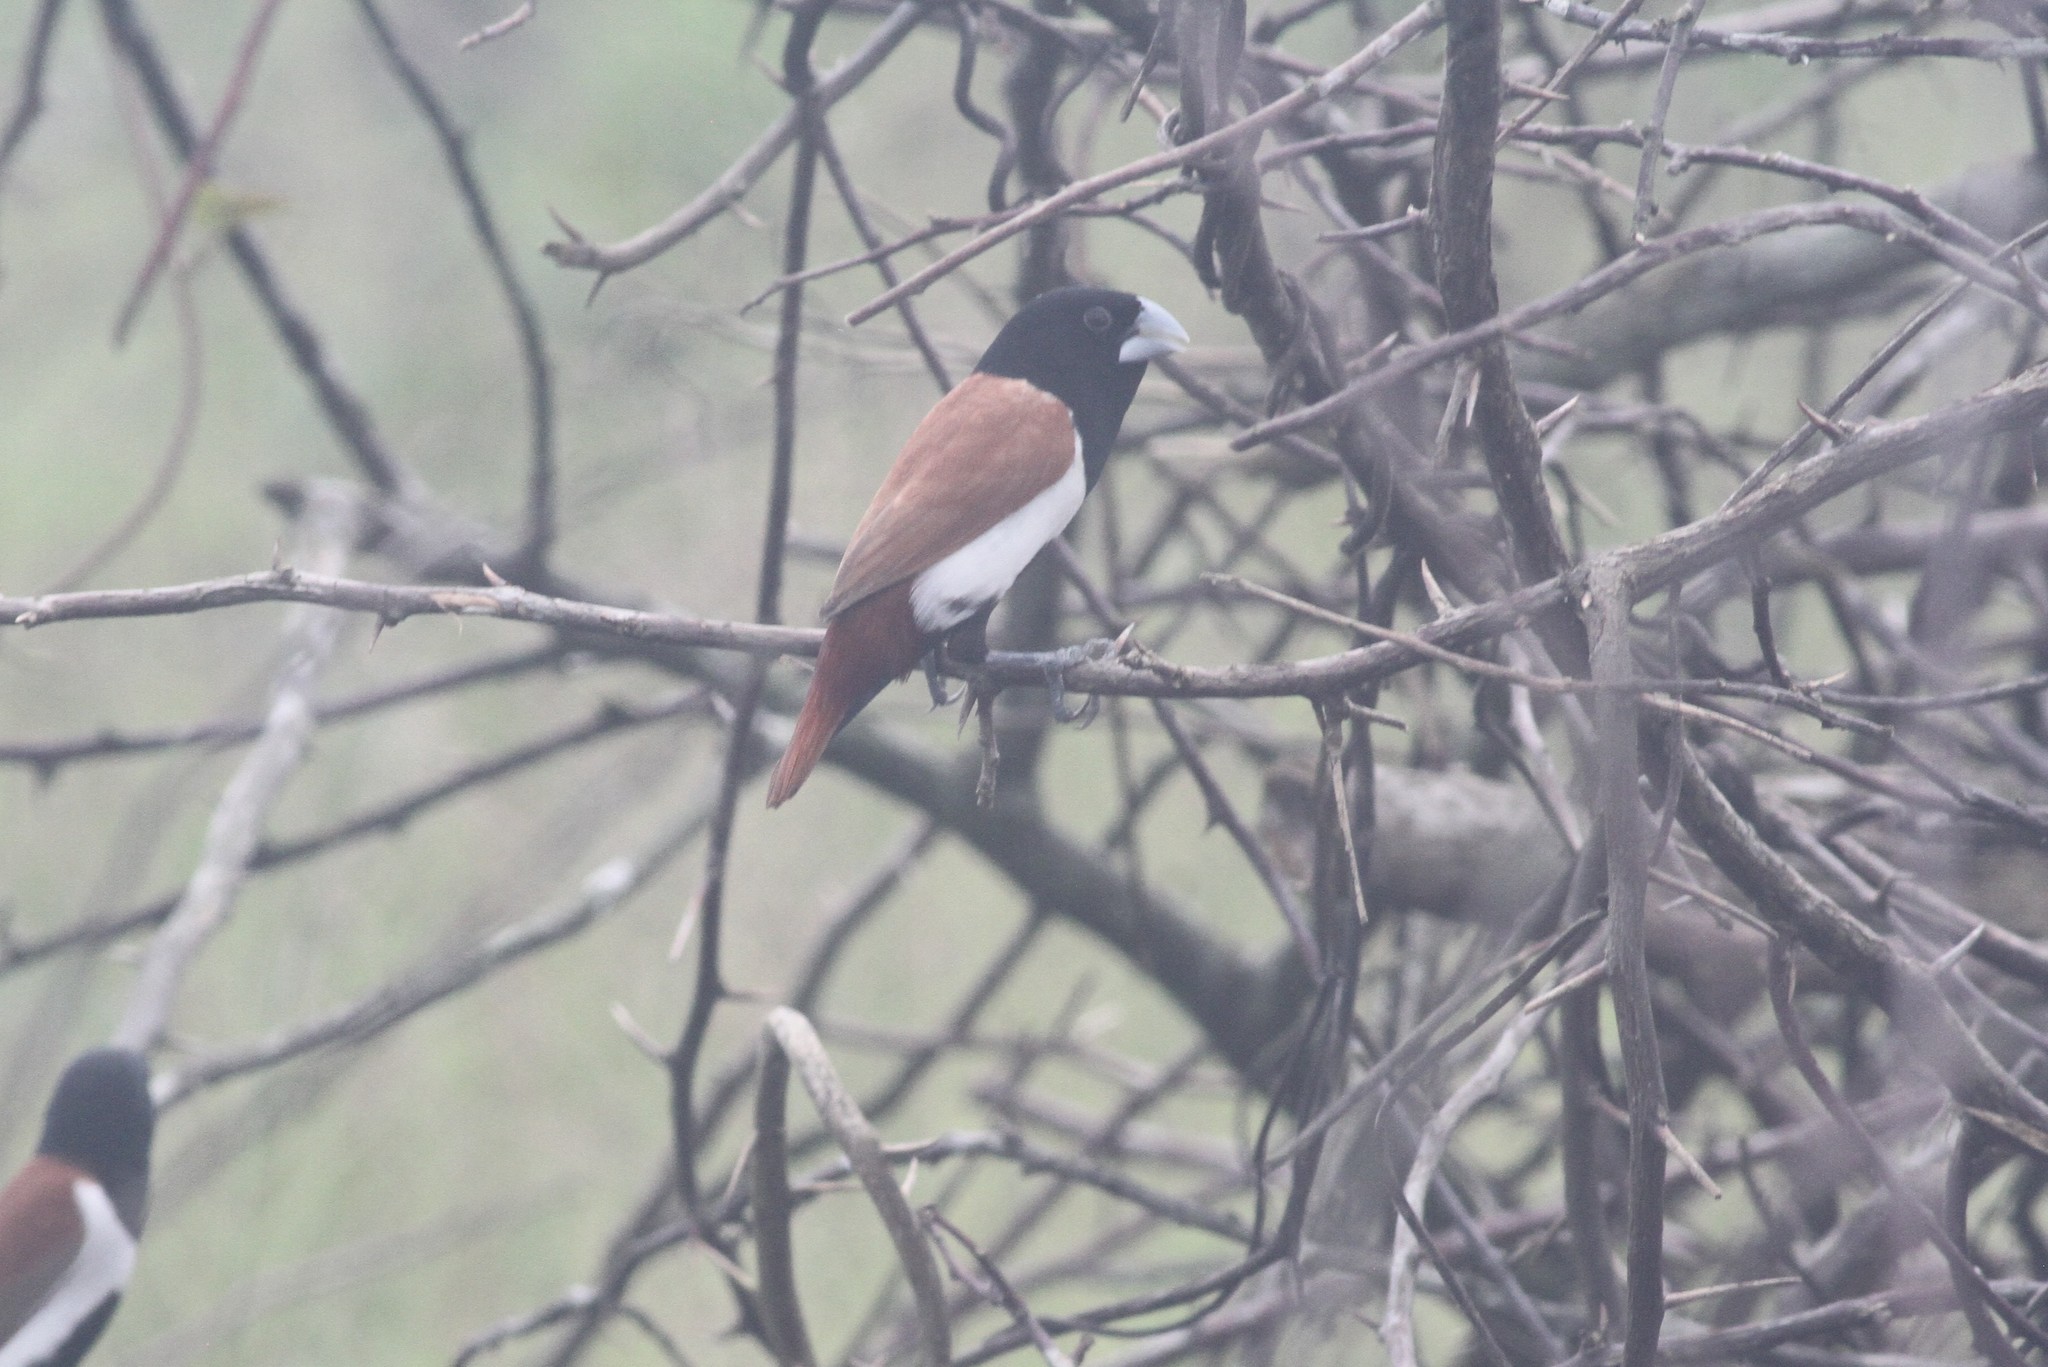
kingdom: Animalia
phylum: Chordata
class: Aves
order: Passeriformes
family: Estrildidae
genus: Lonchura
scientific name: Lonchura malacca
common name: Tricolored munia
